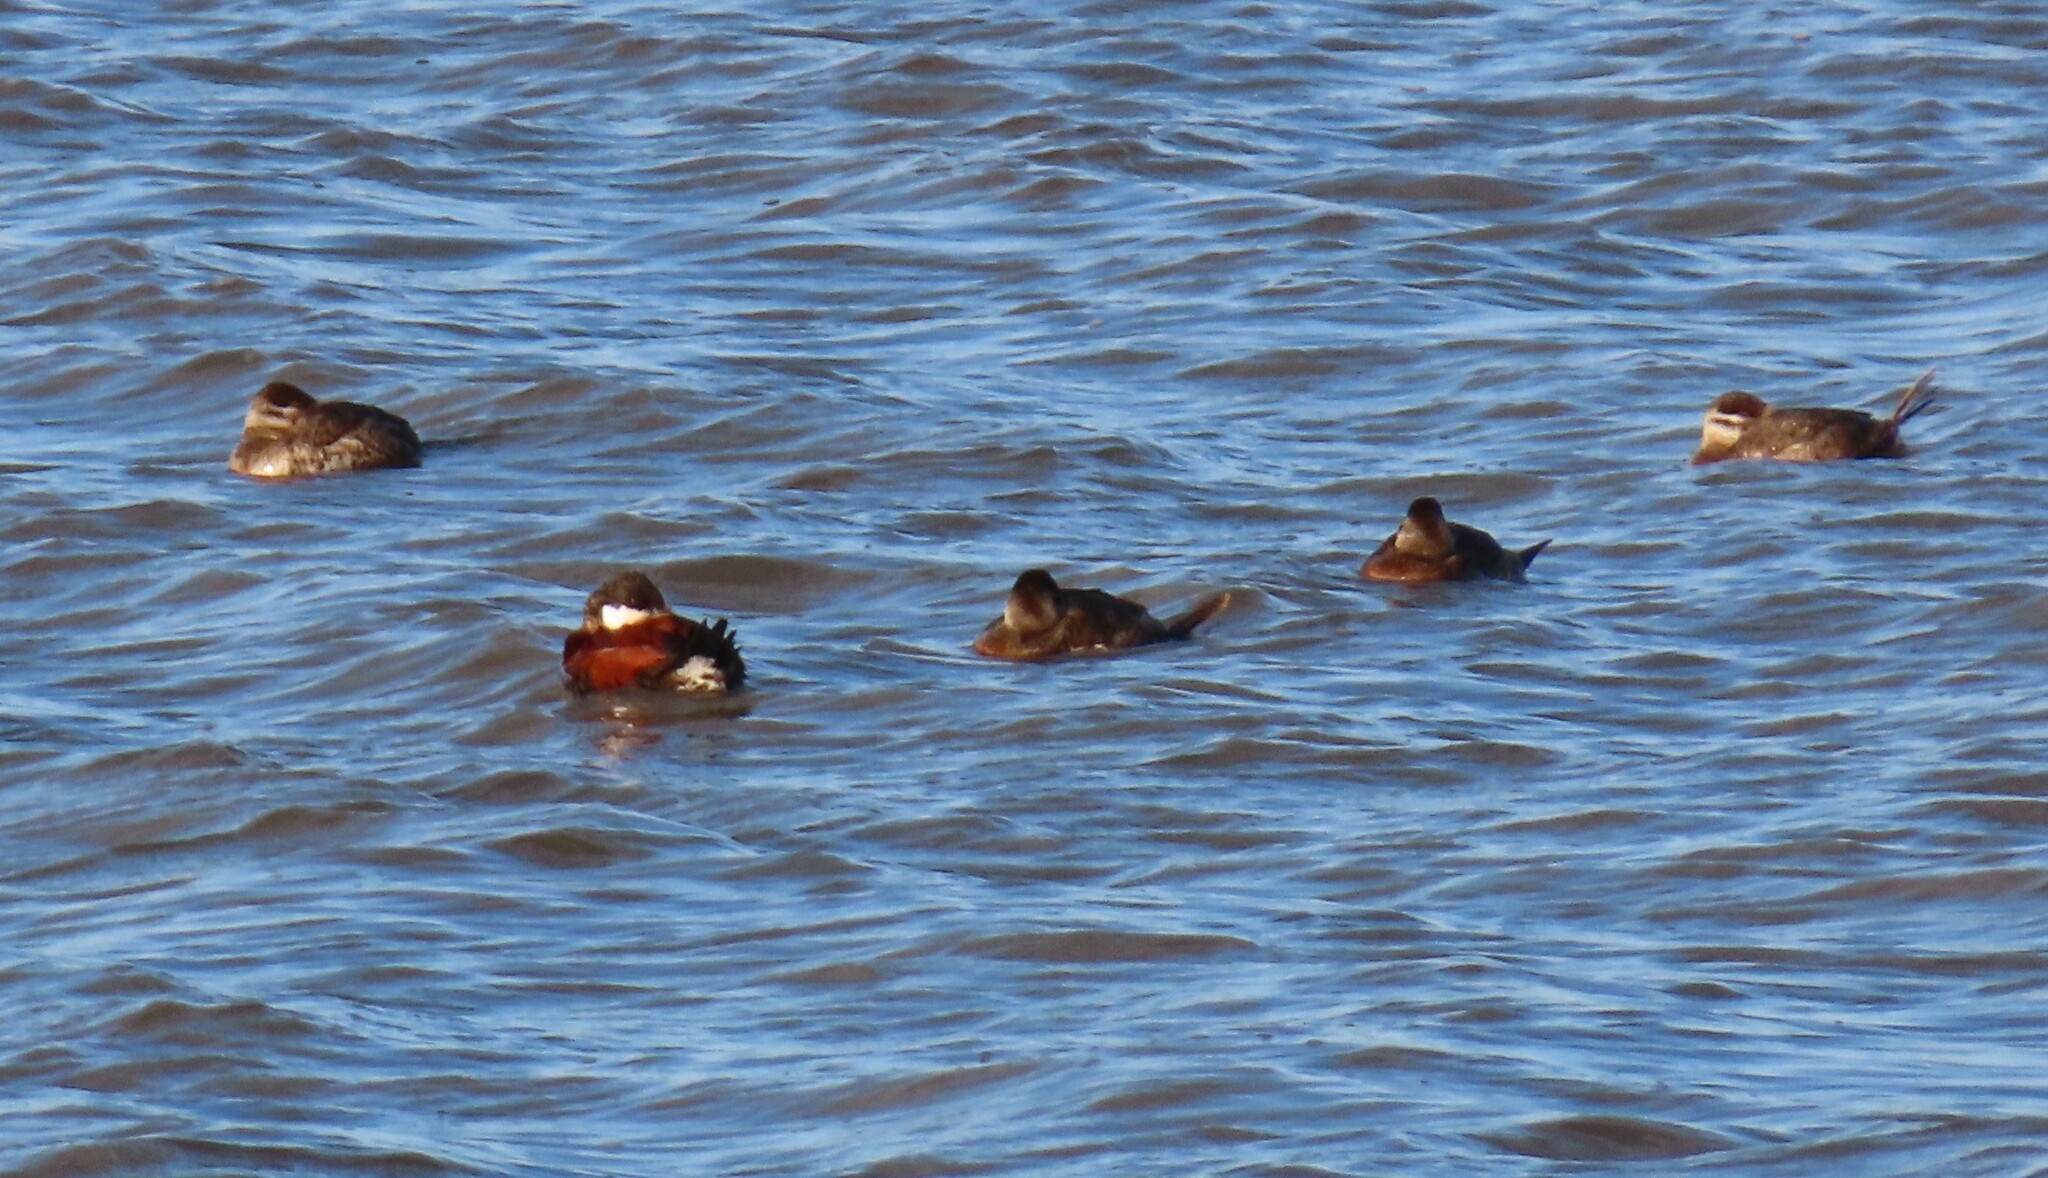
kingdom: Animalia
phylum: Chordata
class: Aves
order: Anseriformes
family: Anatidae
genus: Oxyura
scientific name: Oxyura jamaicensis
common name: Ruddy duck
